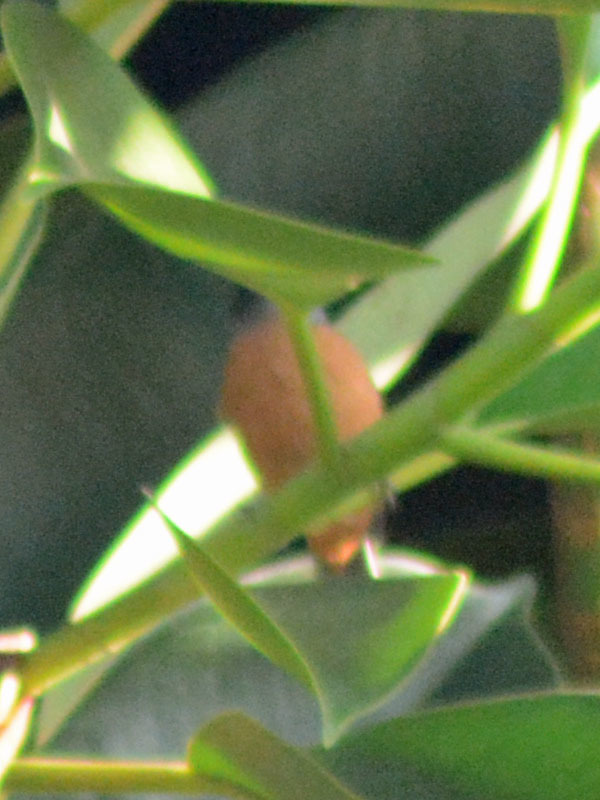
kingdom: Animalia
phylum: Chordata
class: Aves
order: Passeriformes
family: Thraupidae
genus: Diglossa
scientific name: Diglossa baritula
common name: Cinnamon-bellied flowerpiercer
